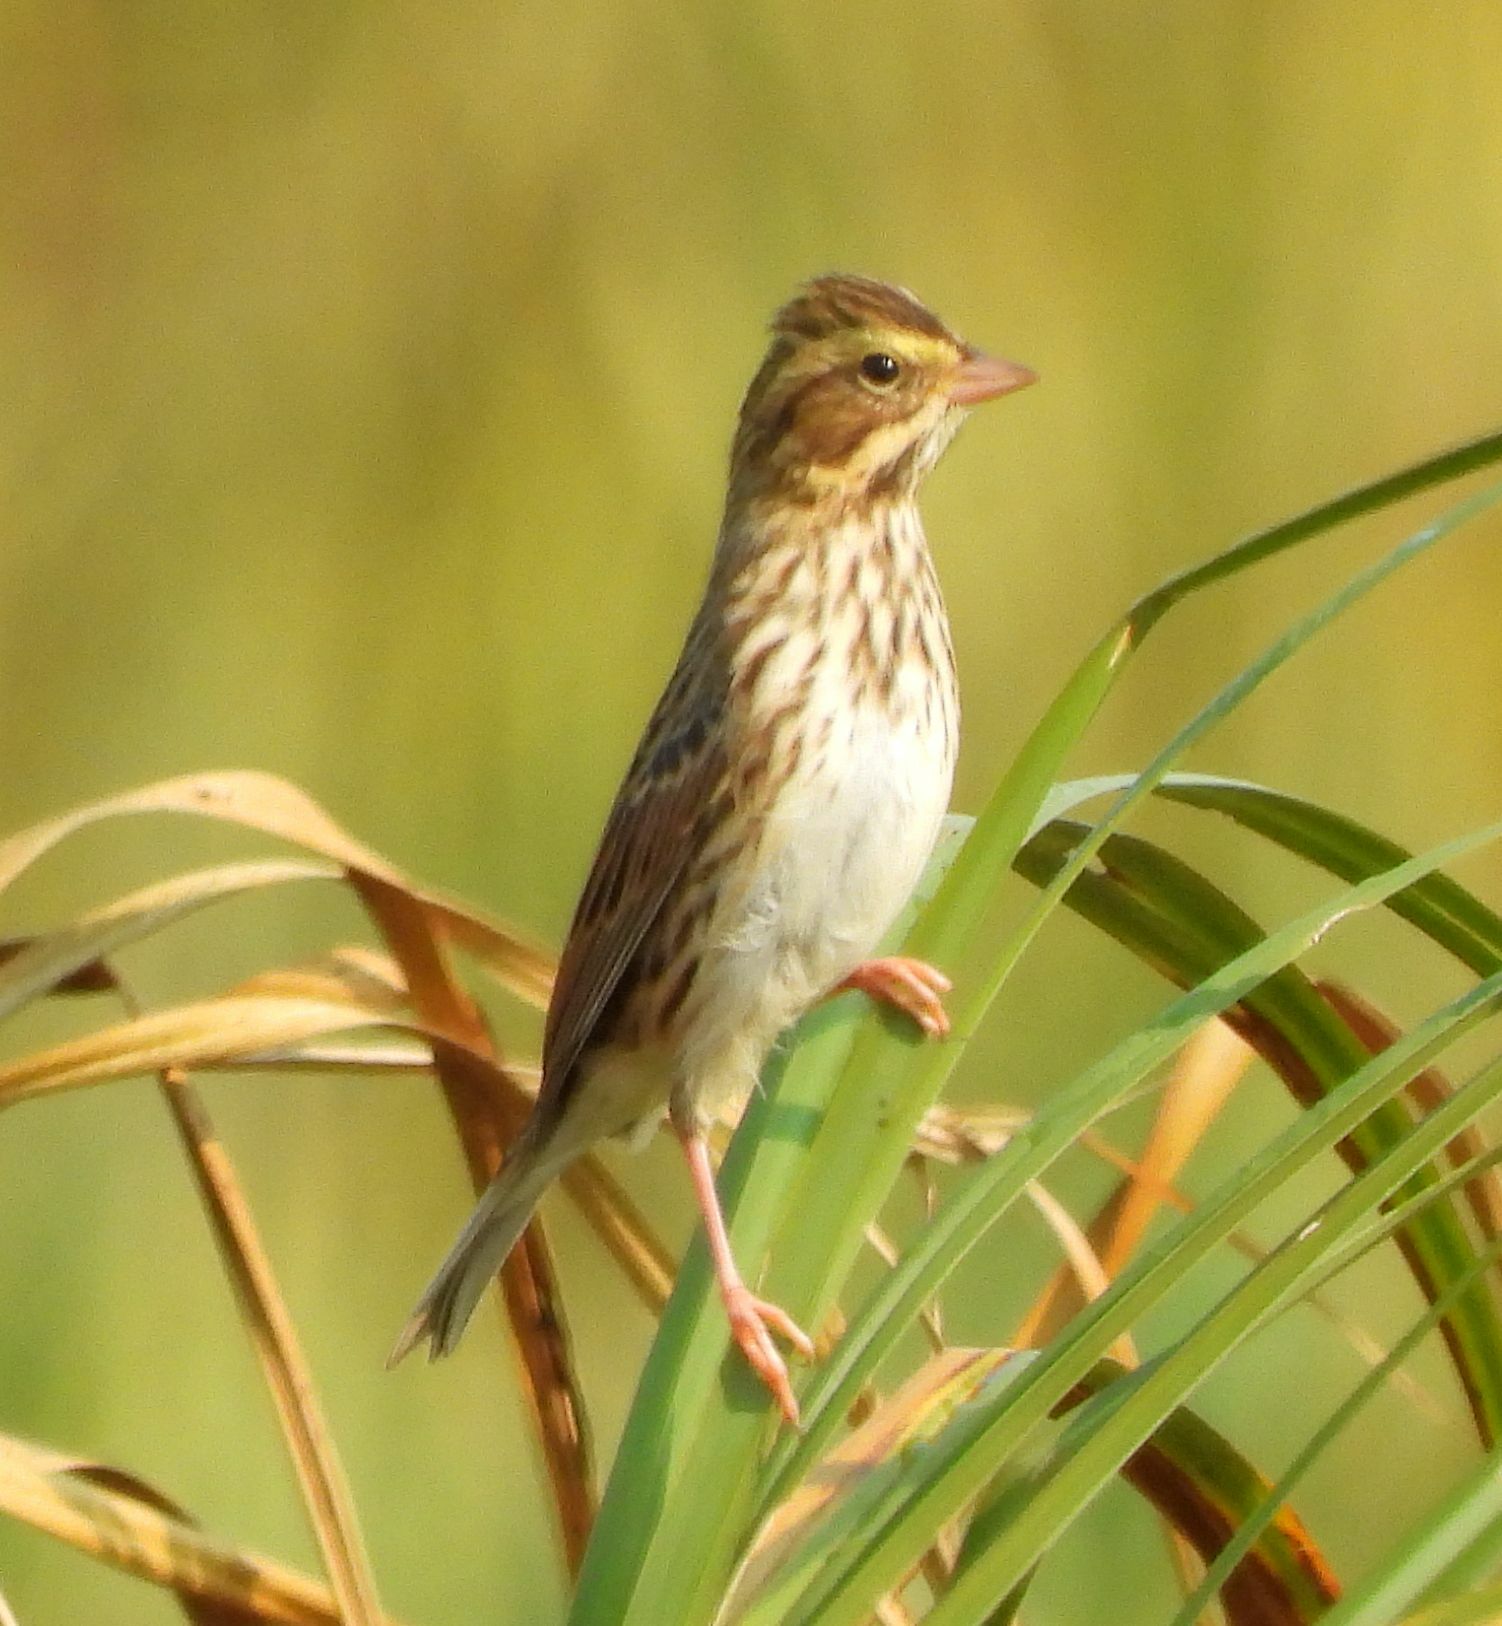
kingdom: Animalia
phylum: Chordata
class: Aves
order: Passeriformes
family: Passerellidae
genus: Passerculus
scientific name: Passerculus sandwichensis
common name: Savannah sparrow
